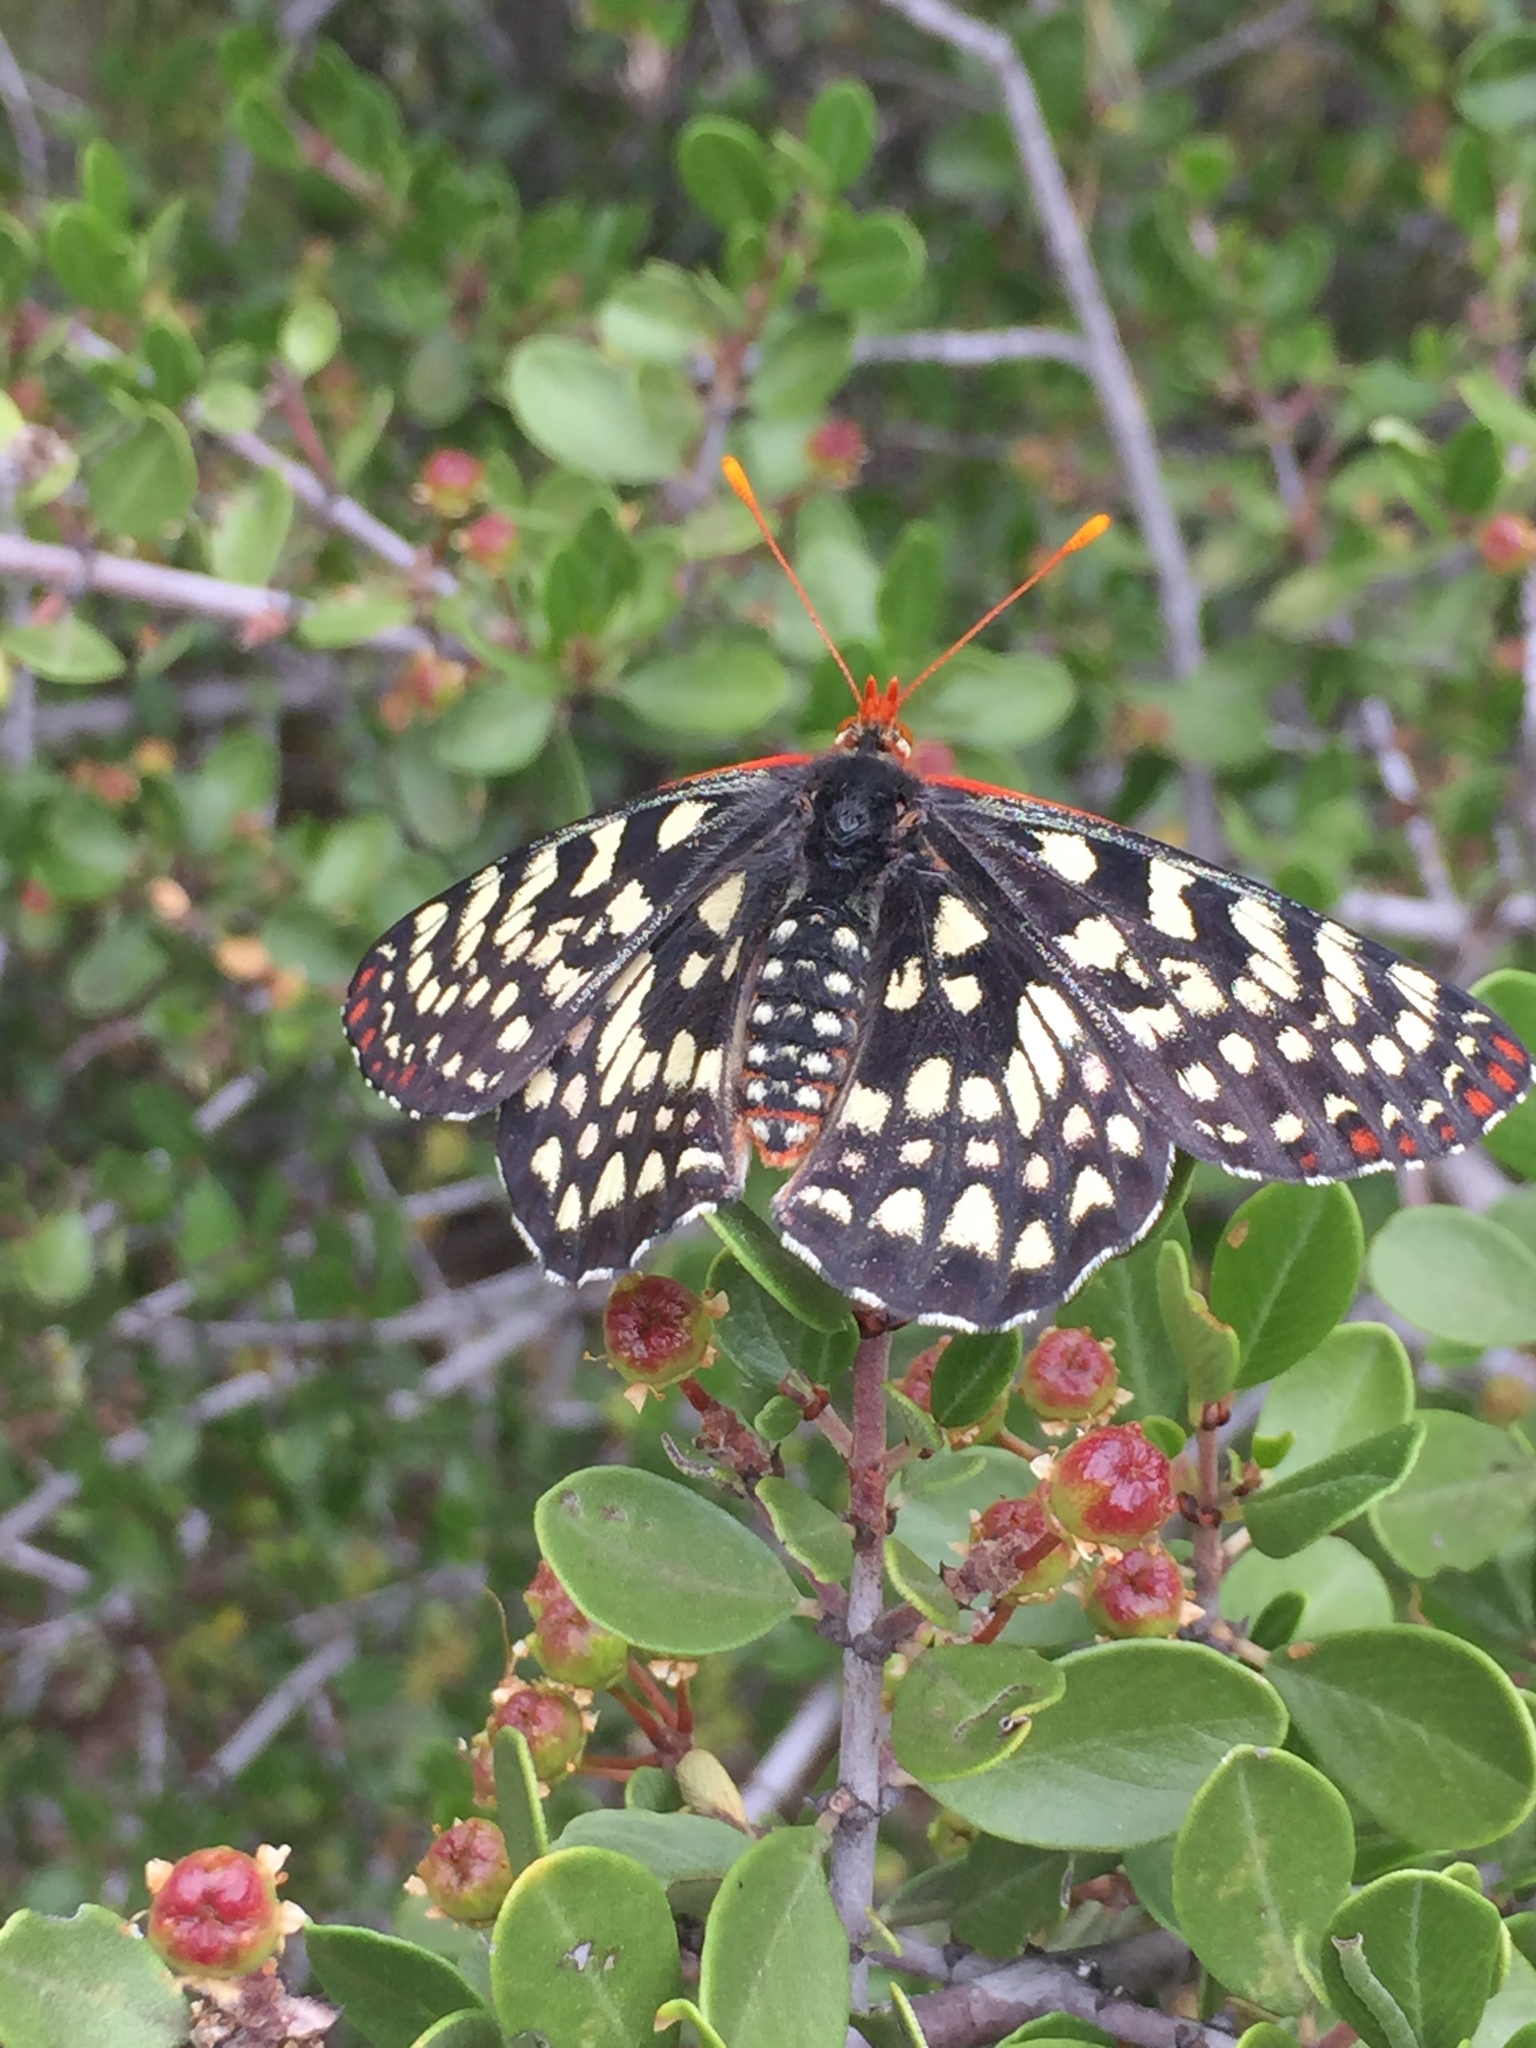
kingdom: Animalia
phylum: Arthropoda
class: Insecta
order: Lepidoptera
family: Nymphalidae
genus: Occidryas
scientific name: Occidryas chalcedona
